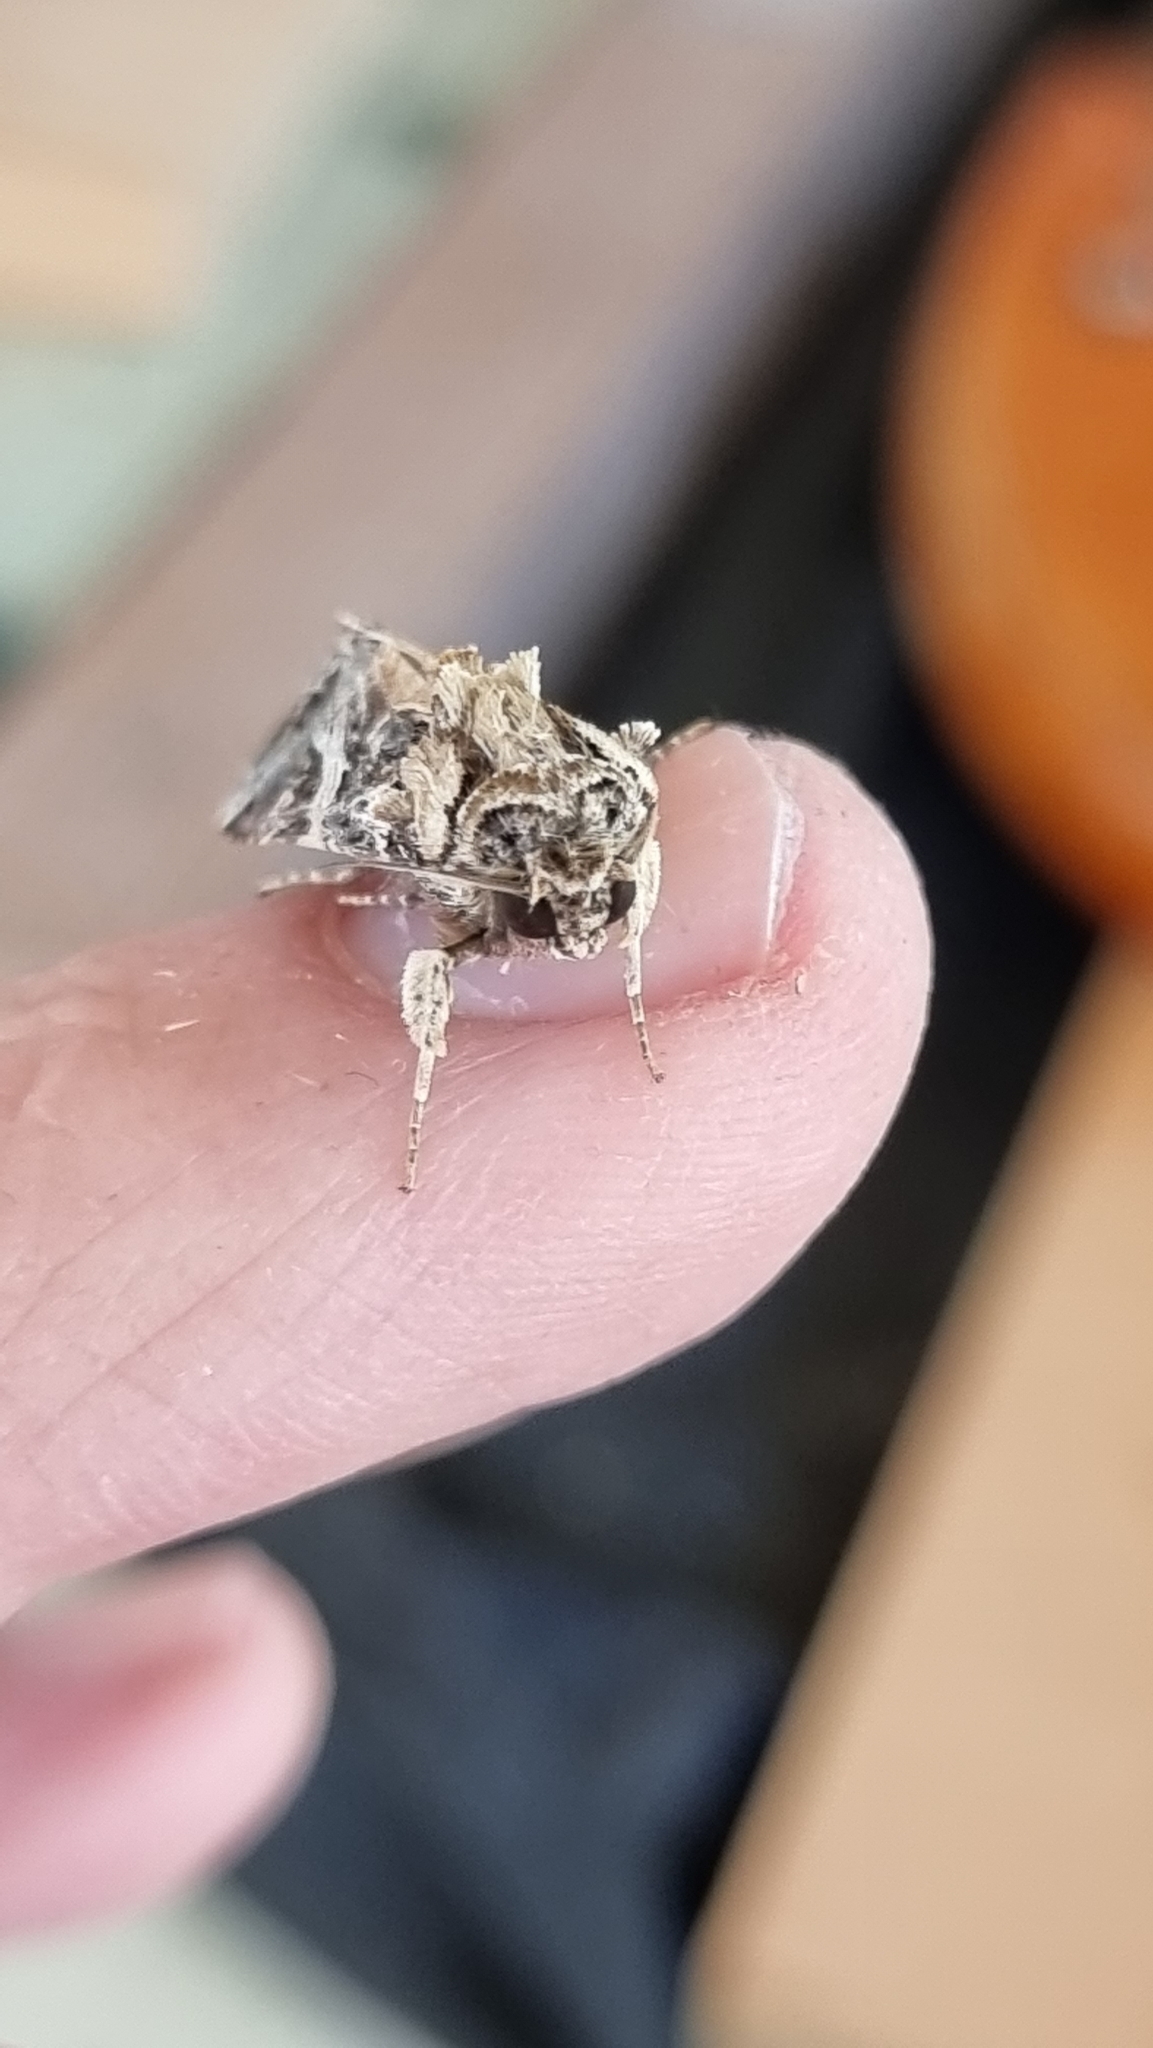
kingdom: Animalia
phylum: Arthropoda
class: Insecta
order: Lepidoptera
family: Noctuidae
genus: Spodoptera
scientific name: Spodoptera litura
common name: Asian cotton leafworm
